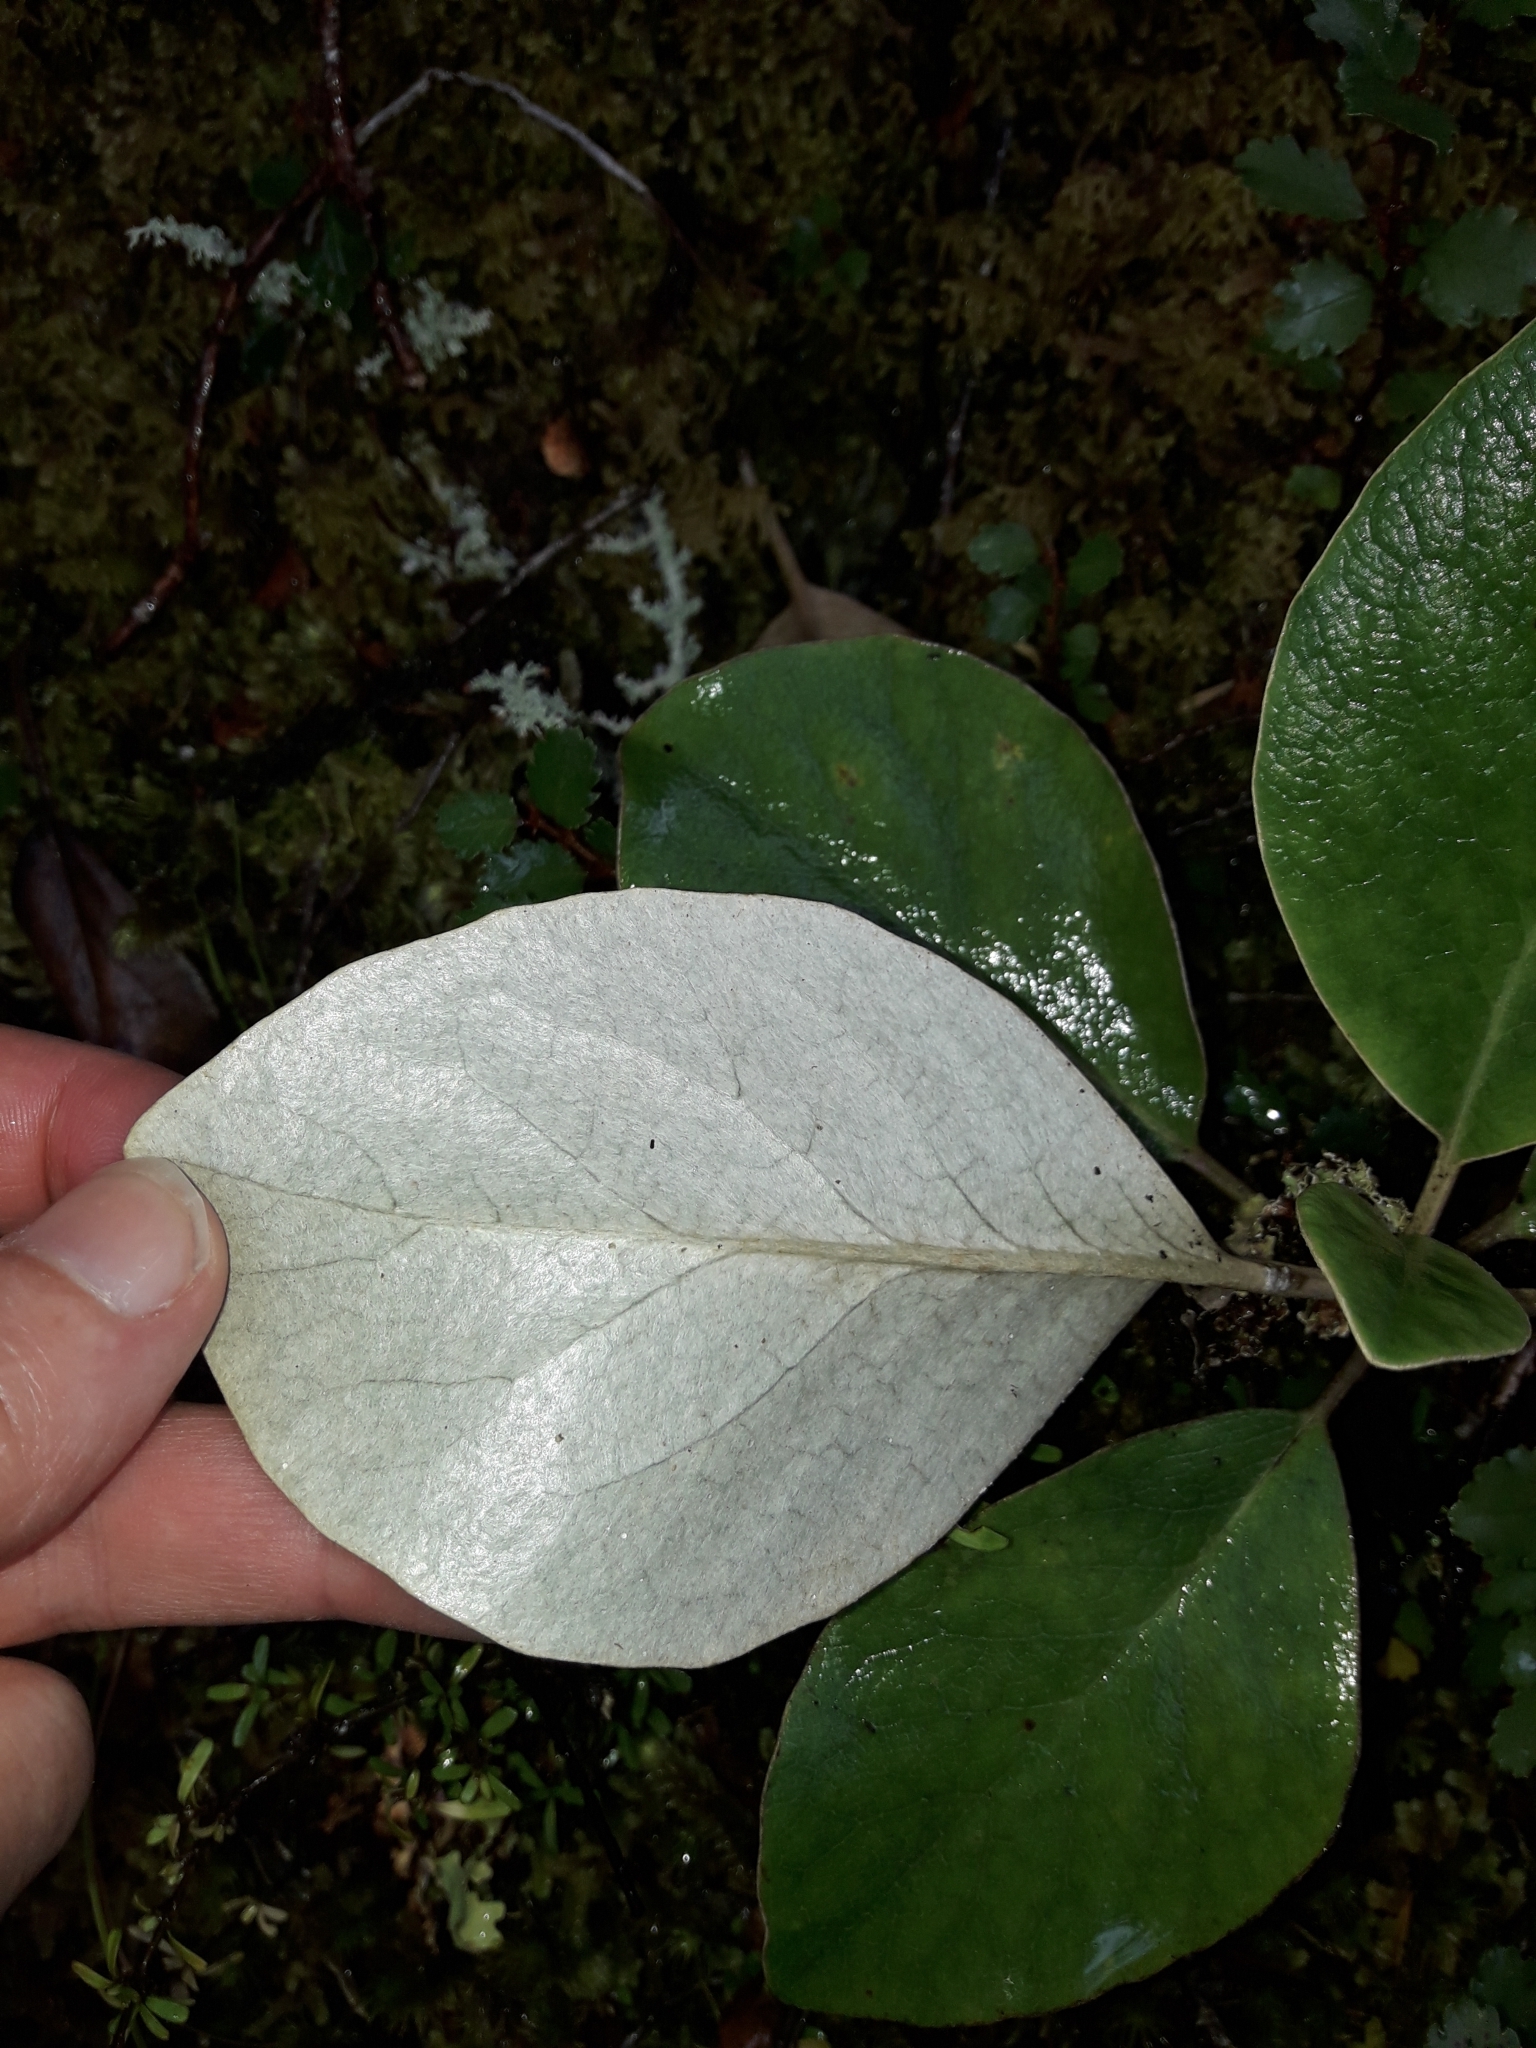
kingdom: Plantae
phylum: Tracheophyta
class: Magnoliopsida
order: Asterales
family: Asteraceae
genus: Brachyglottis
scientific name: Brachyglottis buchananii
